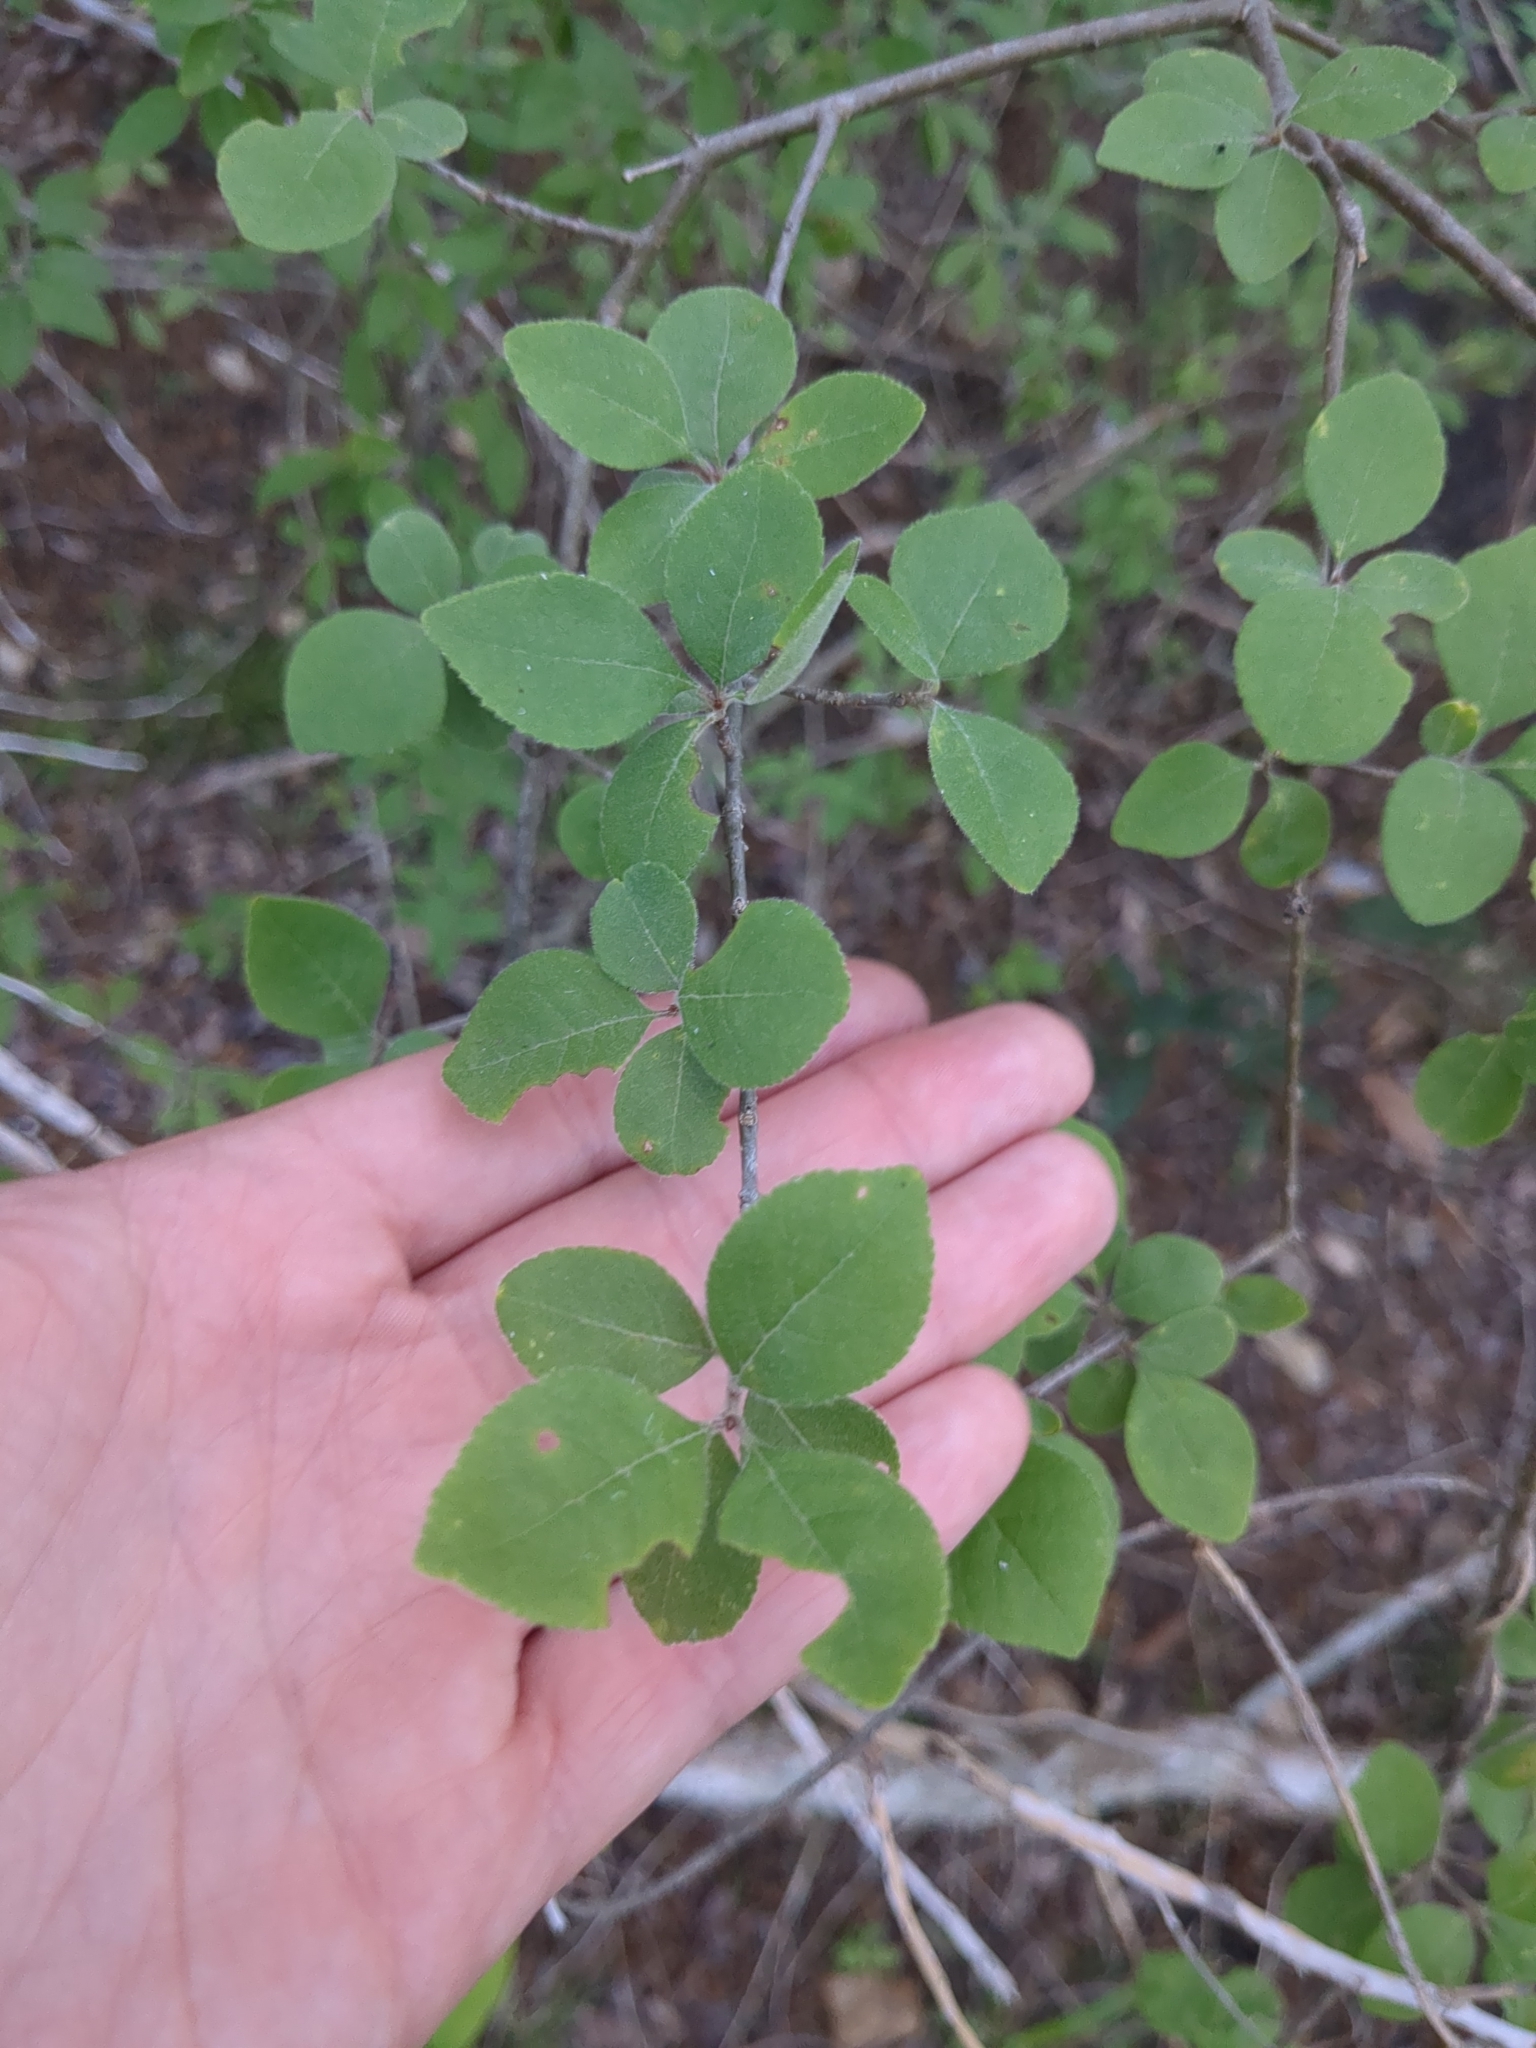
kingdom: Plantae
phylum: Tracheophyta
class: Magnoliopsida
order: Lamiales
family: Oleaceae
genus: Forestiera
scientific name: Forestiera pubescens
